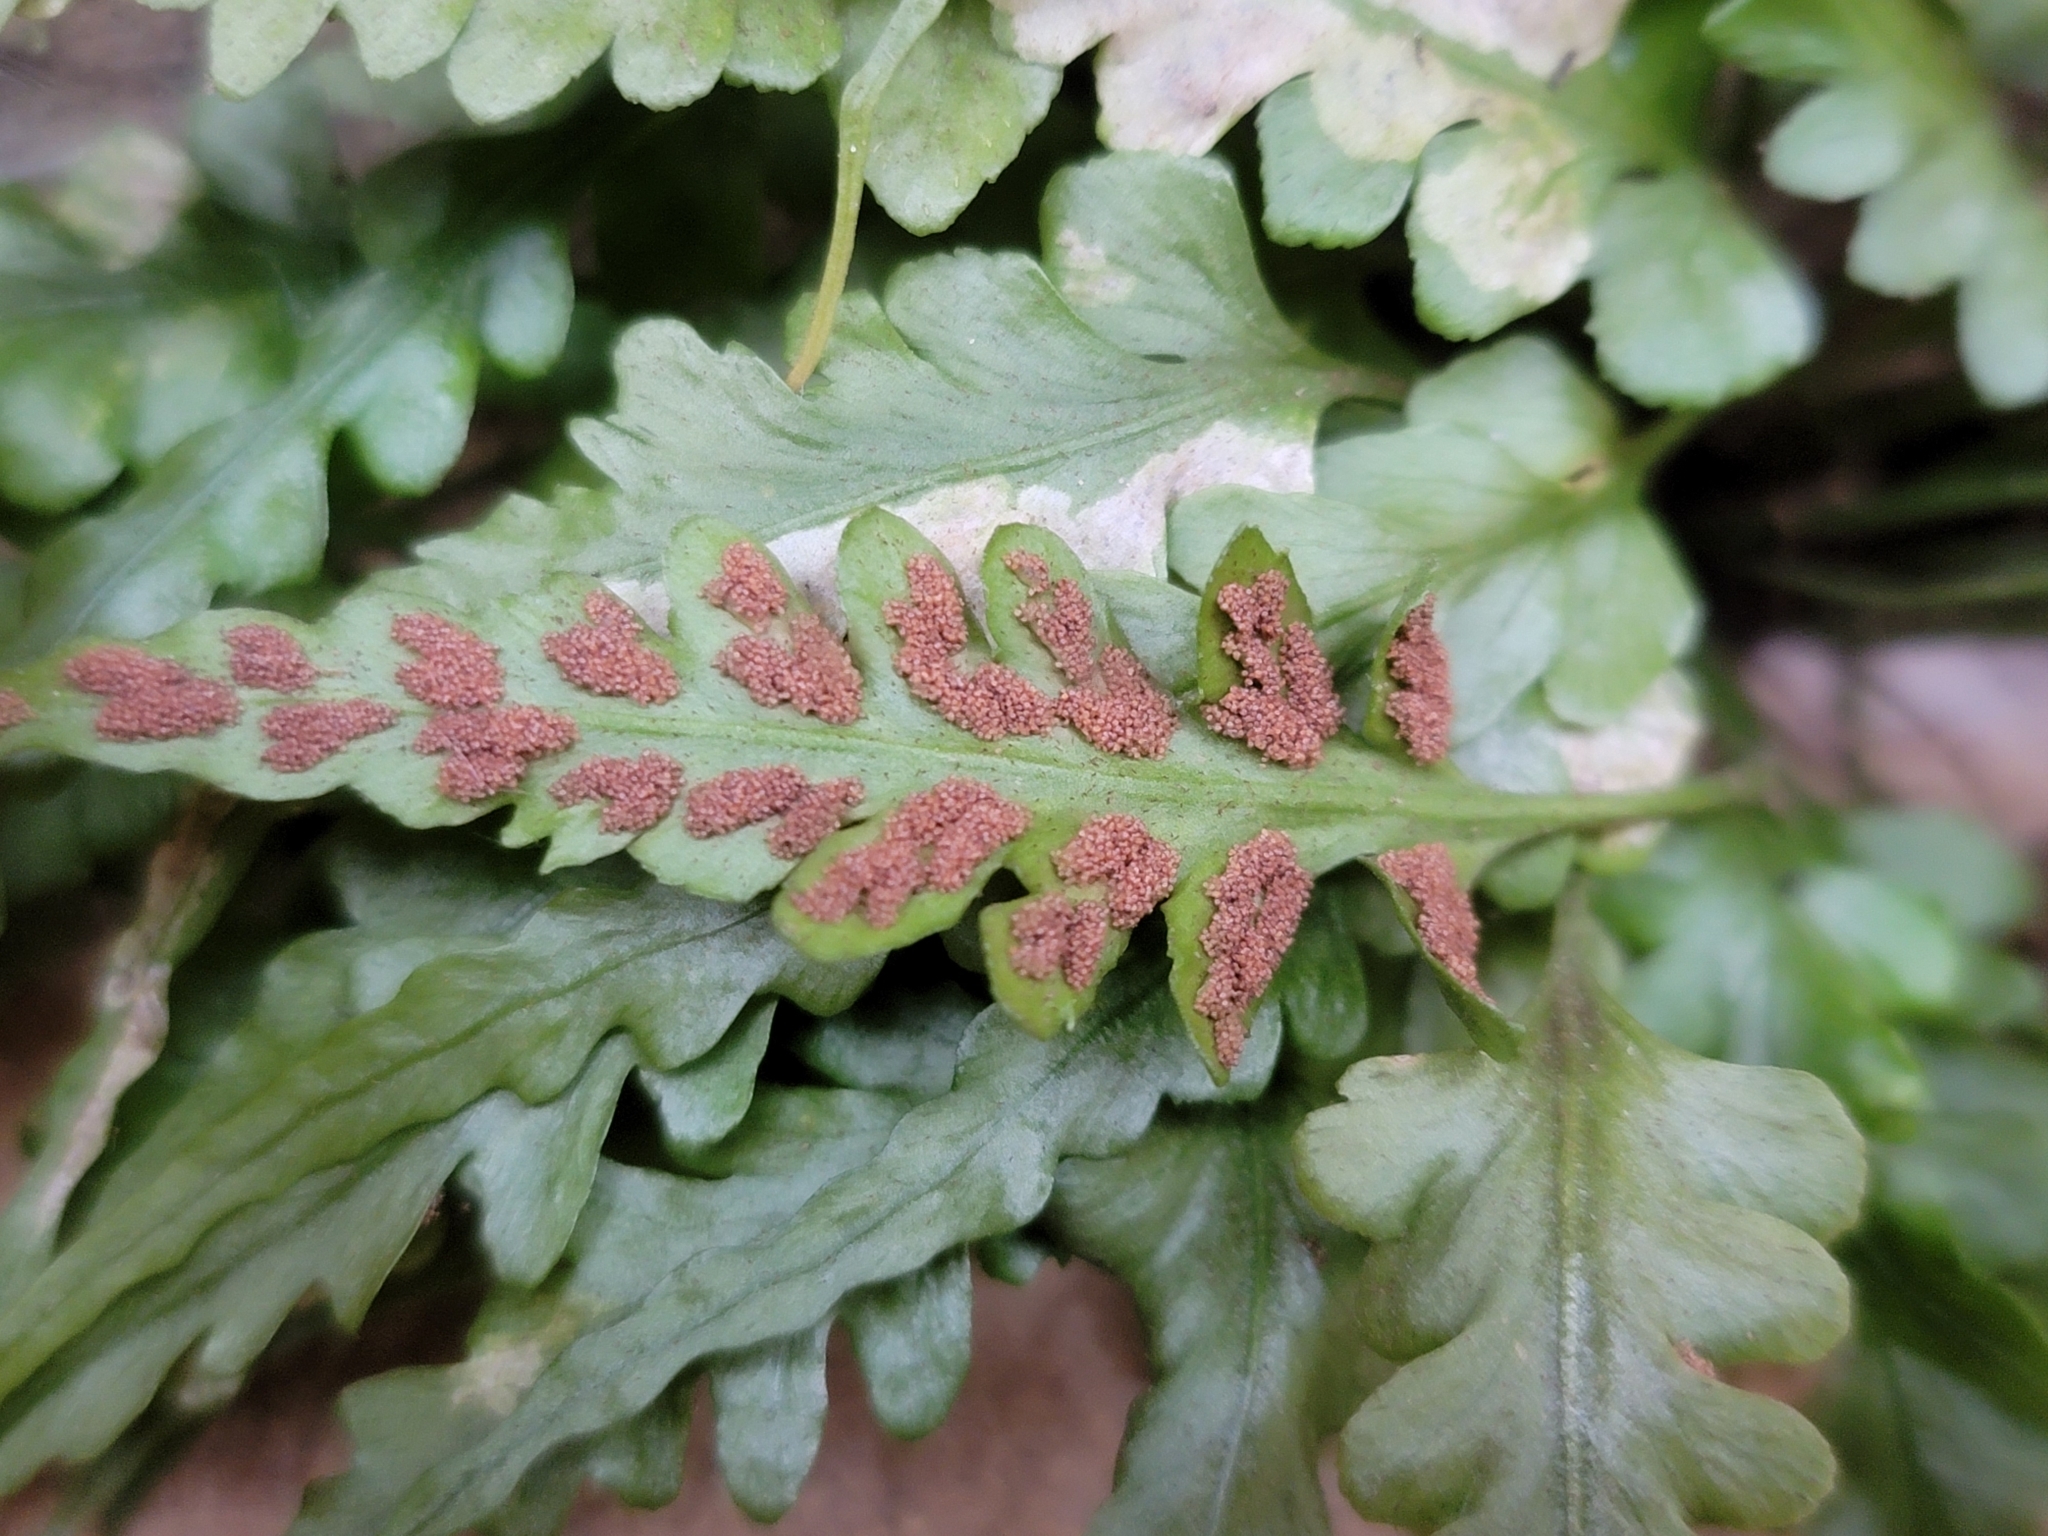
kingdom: Plantae
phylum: Tracheophyta
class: Polypodiopsida
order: Polypodiales
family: Aspleniaceae
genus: Asplenium
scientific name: Asplenium pinnatifidum
